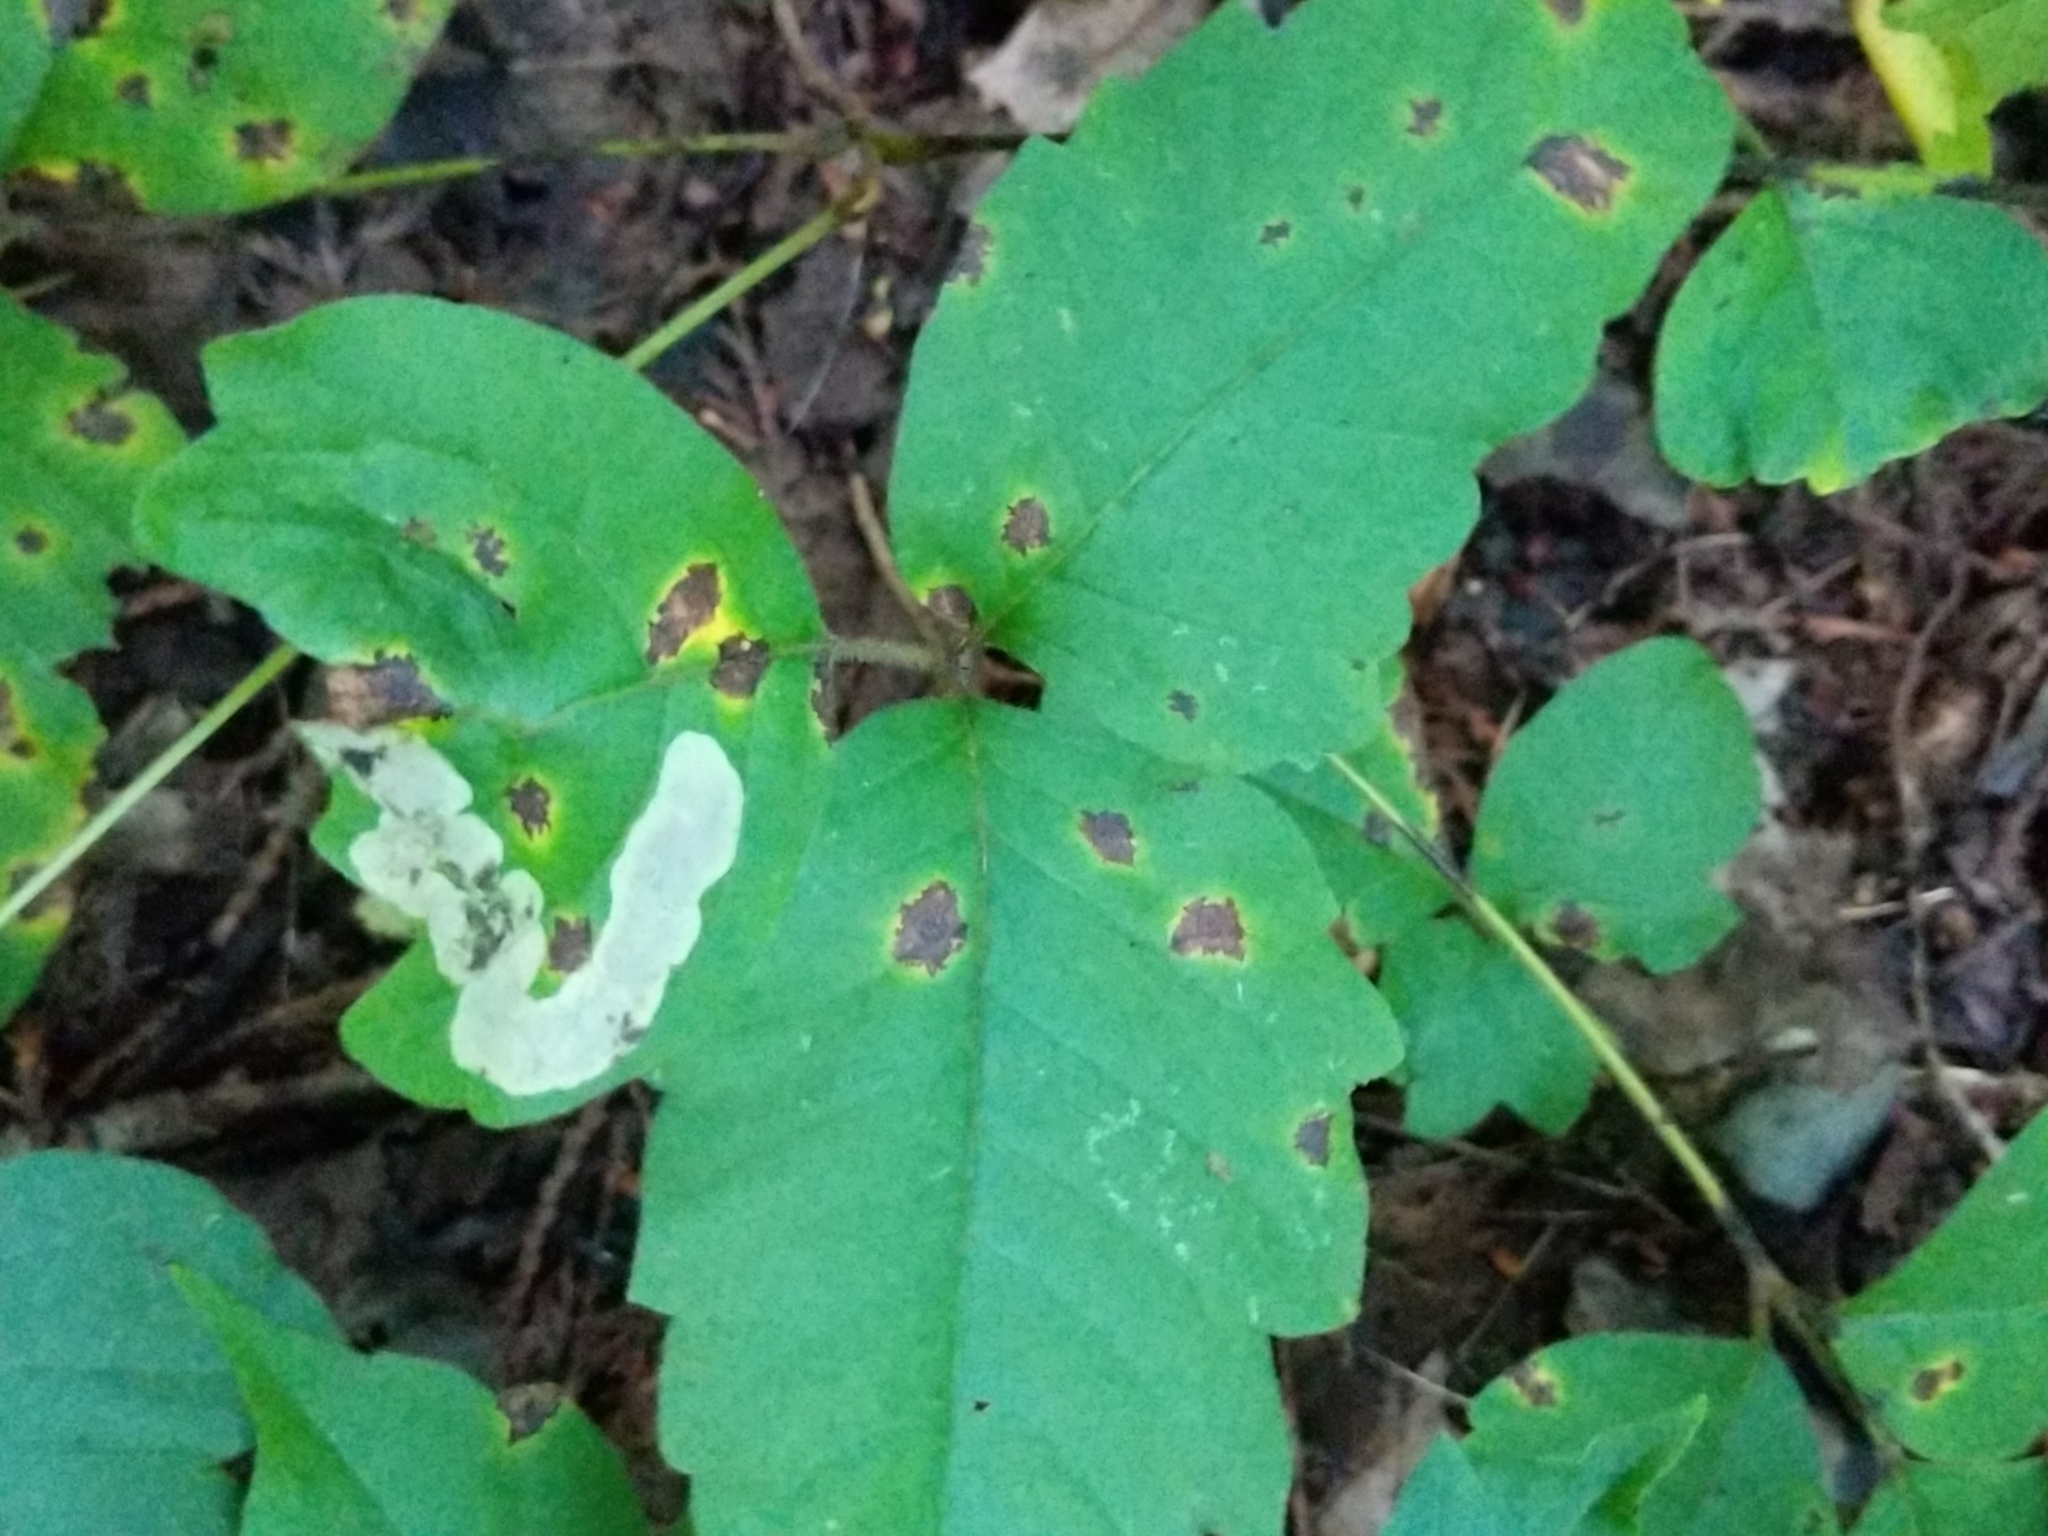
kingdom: Animalia
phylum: Arthropoda
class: Insecta
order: Lepidoptera
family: Gracillariidae
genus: Cameraria
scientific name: Cameraria guttifinitella
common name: Poison ivy leaf-miner moth
